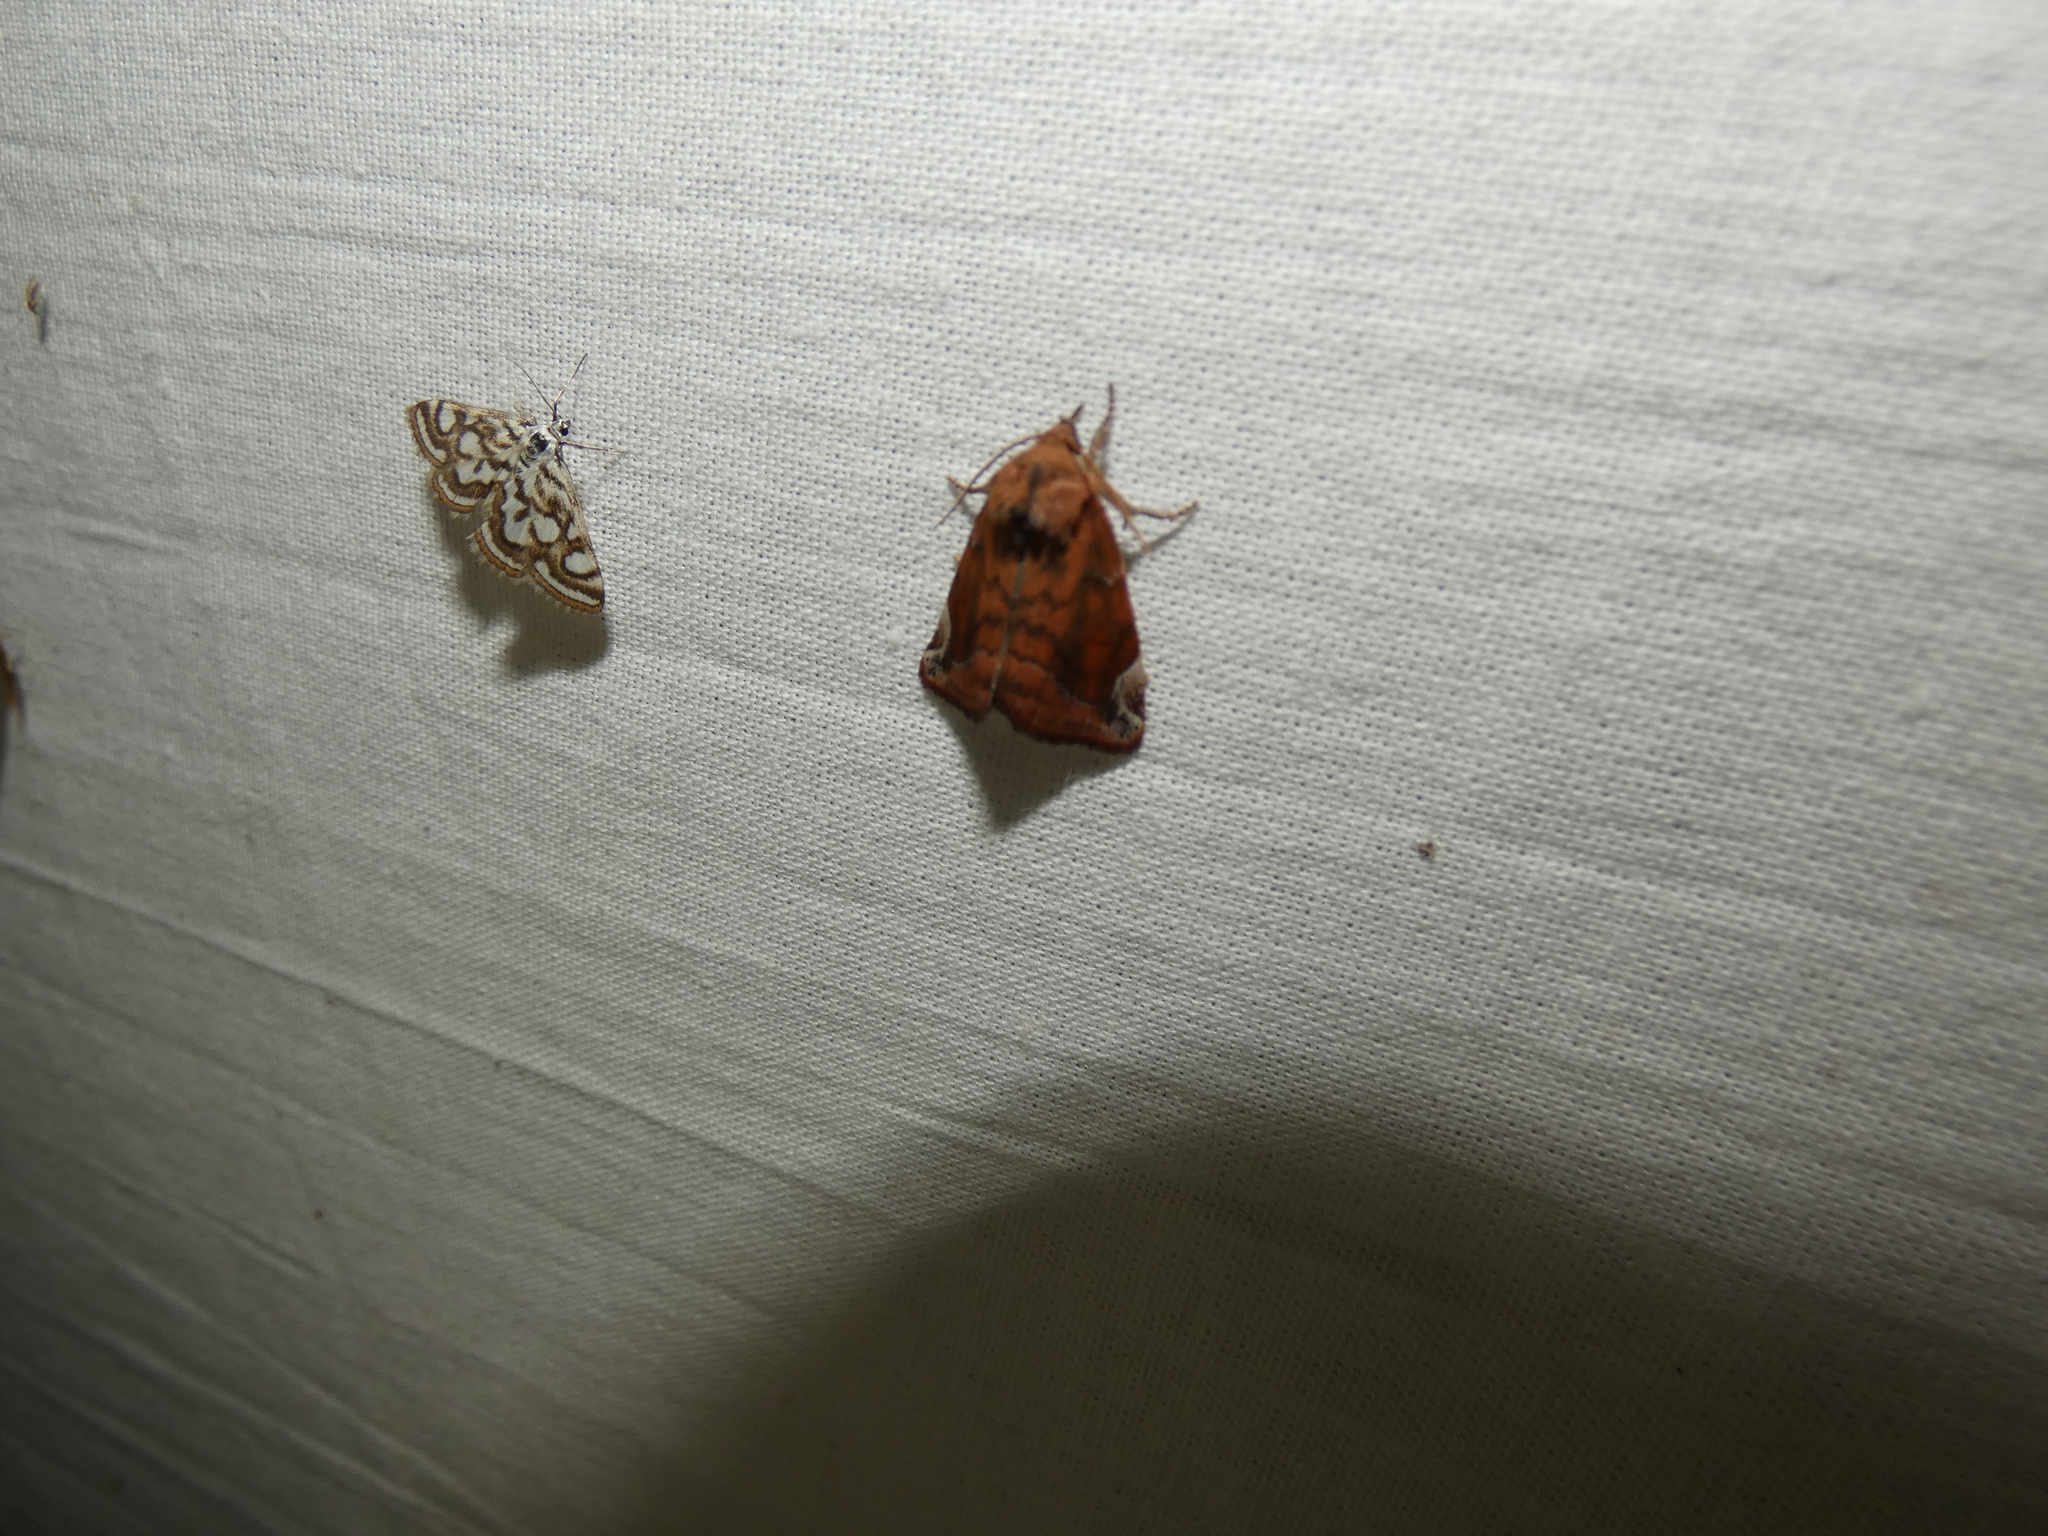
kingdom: Animalia
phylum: Arthropoda
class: Insecta
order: Lepidoptera
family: Noctuidae
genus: Cosmia
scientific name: Cosmia pyralina
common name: Lunar-spotted pinion
